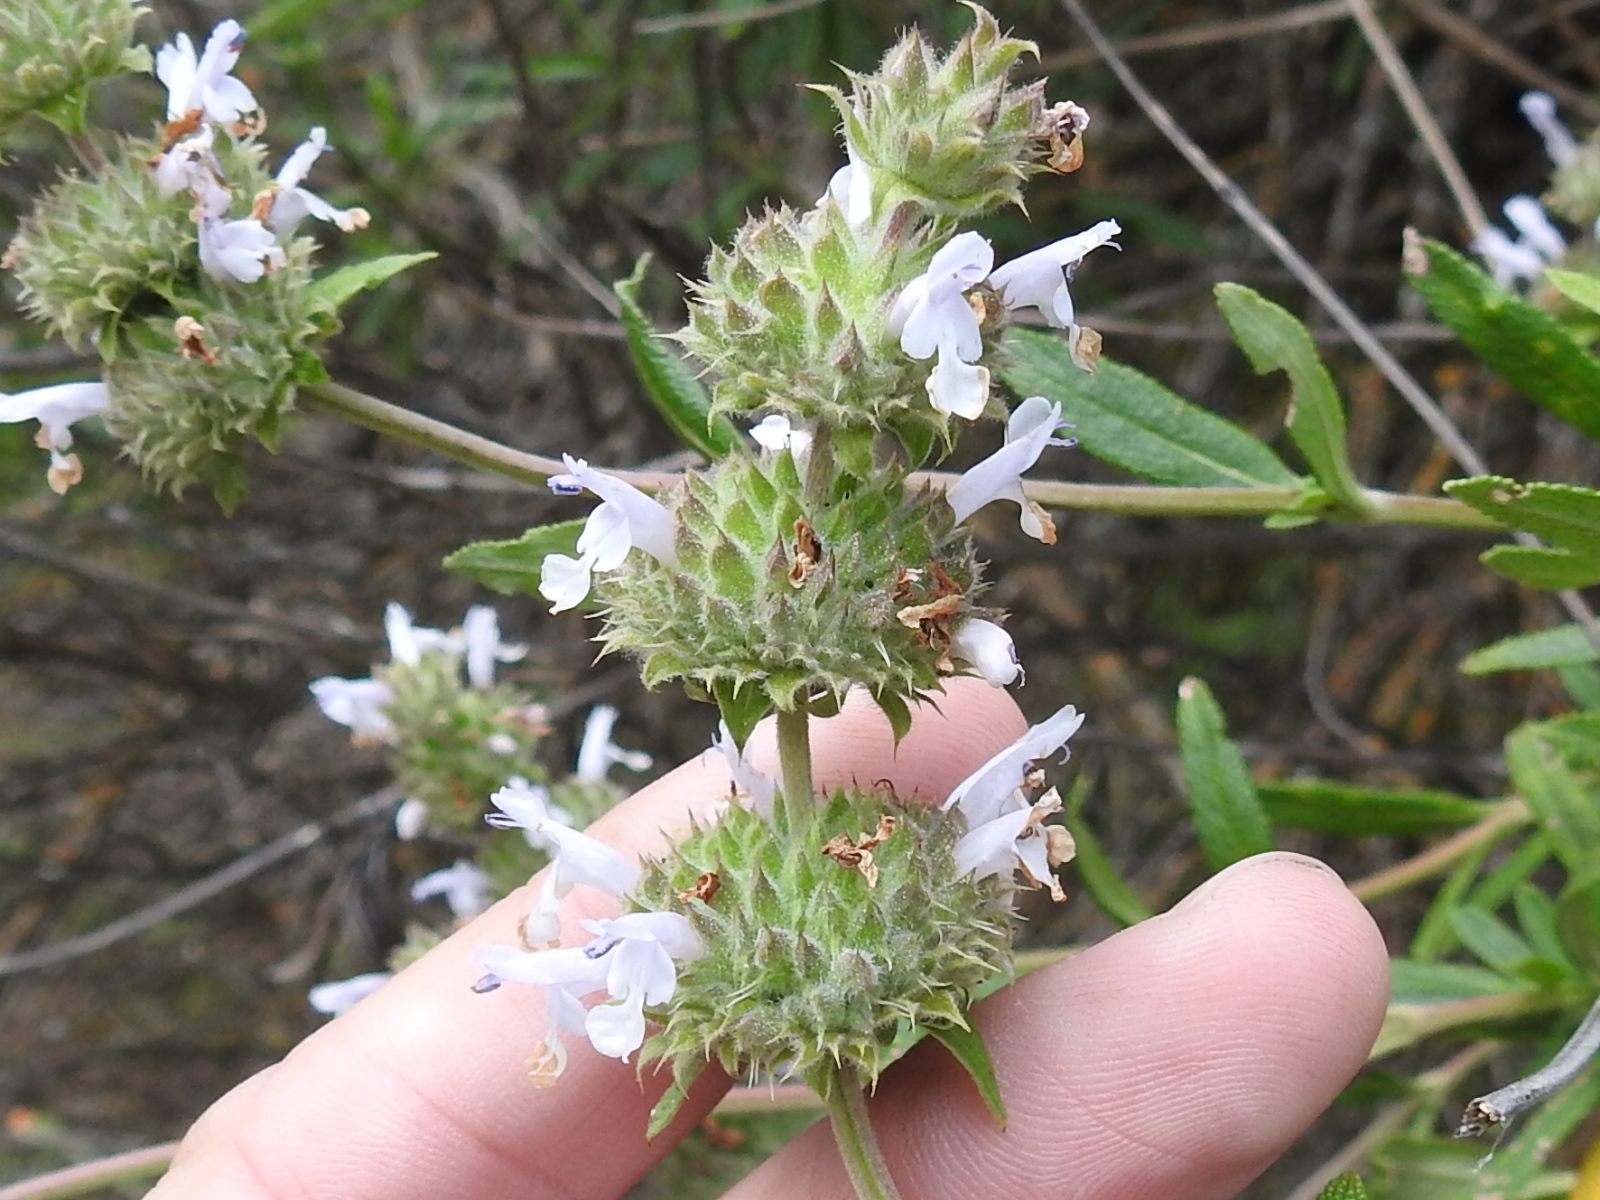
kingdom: Plantae
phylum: Tracheophyta
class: Magnoliopsida
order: Lamiales
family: Lamiaceae
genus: Salvia
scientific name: Salvia mellifera
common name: Black sage
